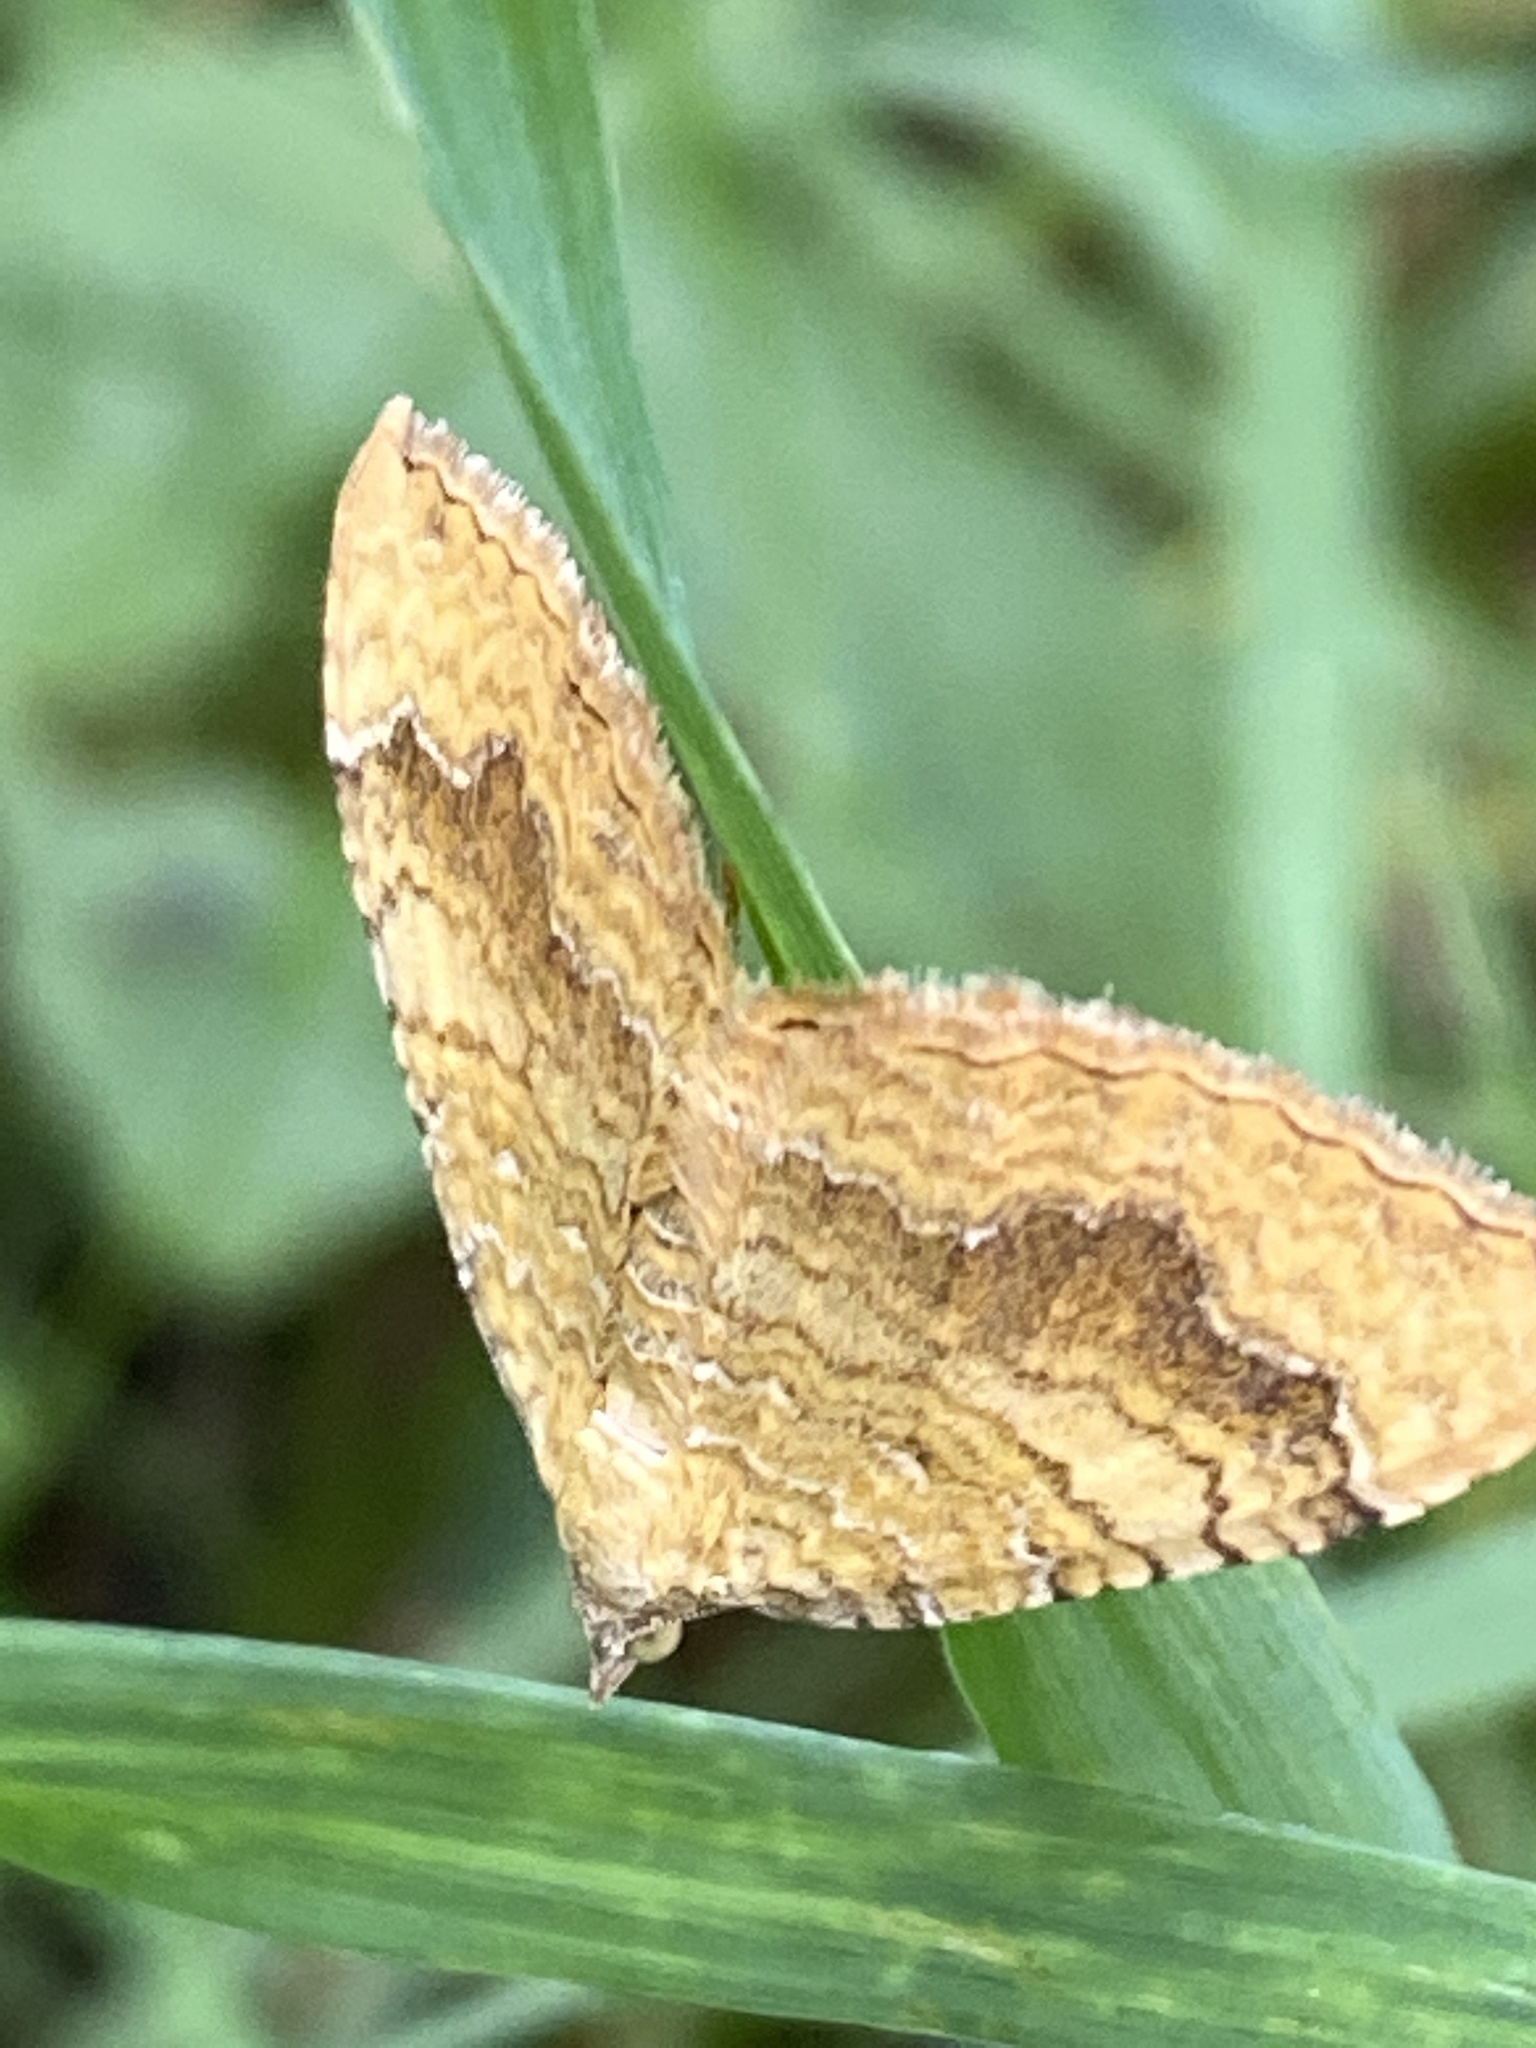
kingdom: Animalia
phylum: Arthropoda
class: Insecta
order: Lepidoptera
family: Geometridae
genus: Camptogramma
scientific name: Camptogramma bilineata
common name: Yellow shell
